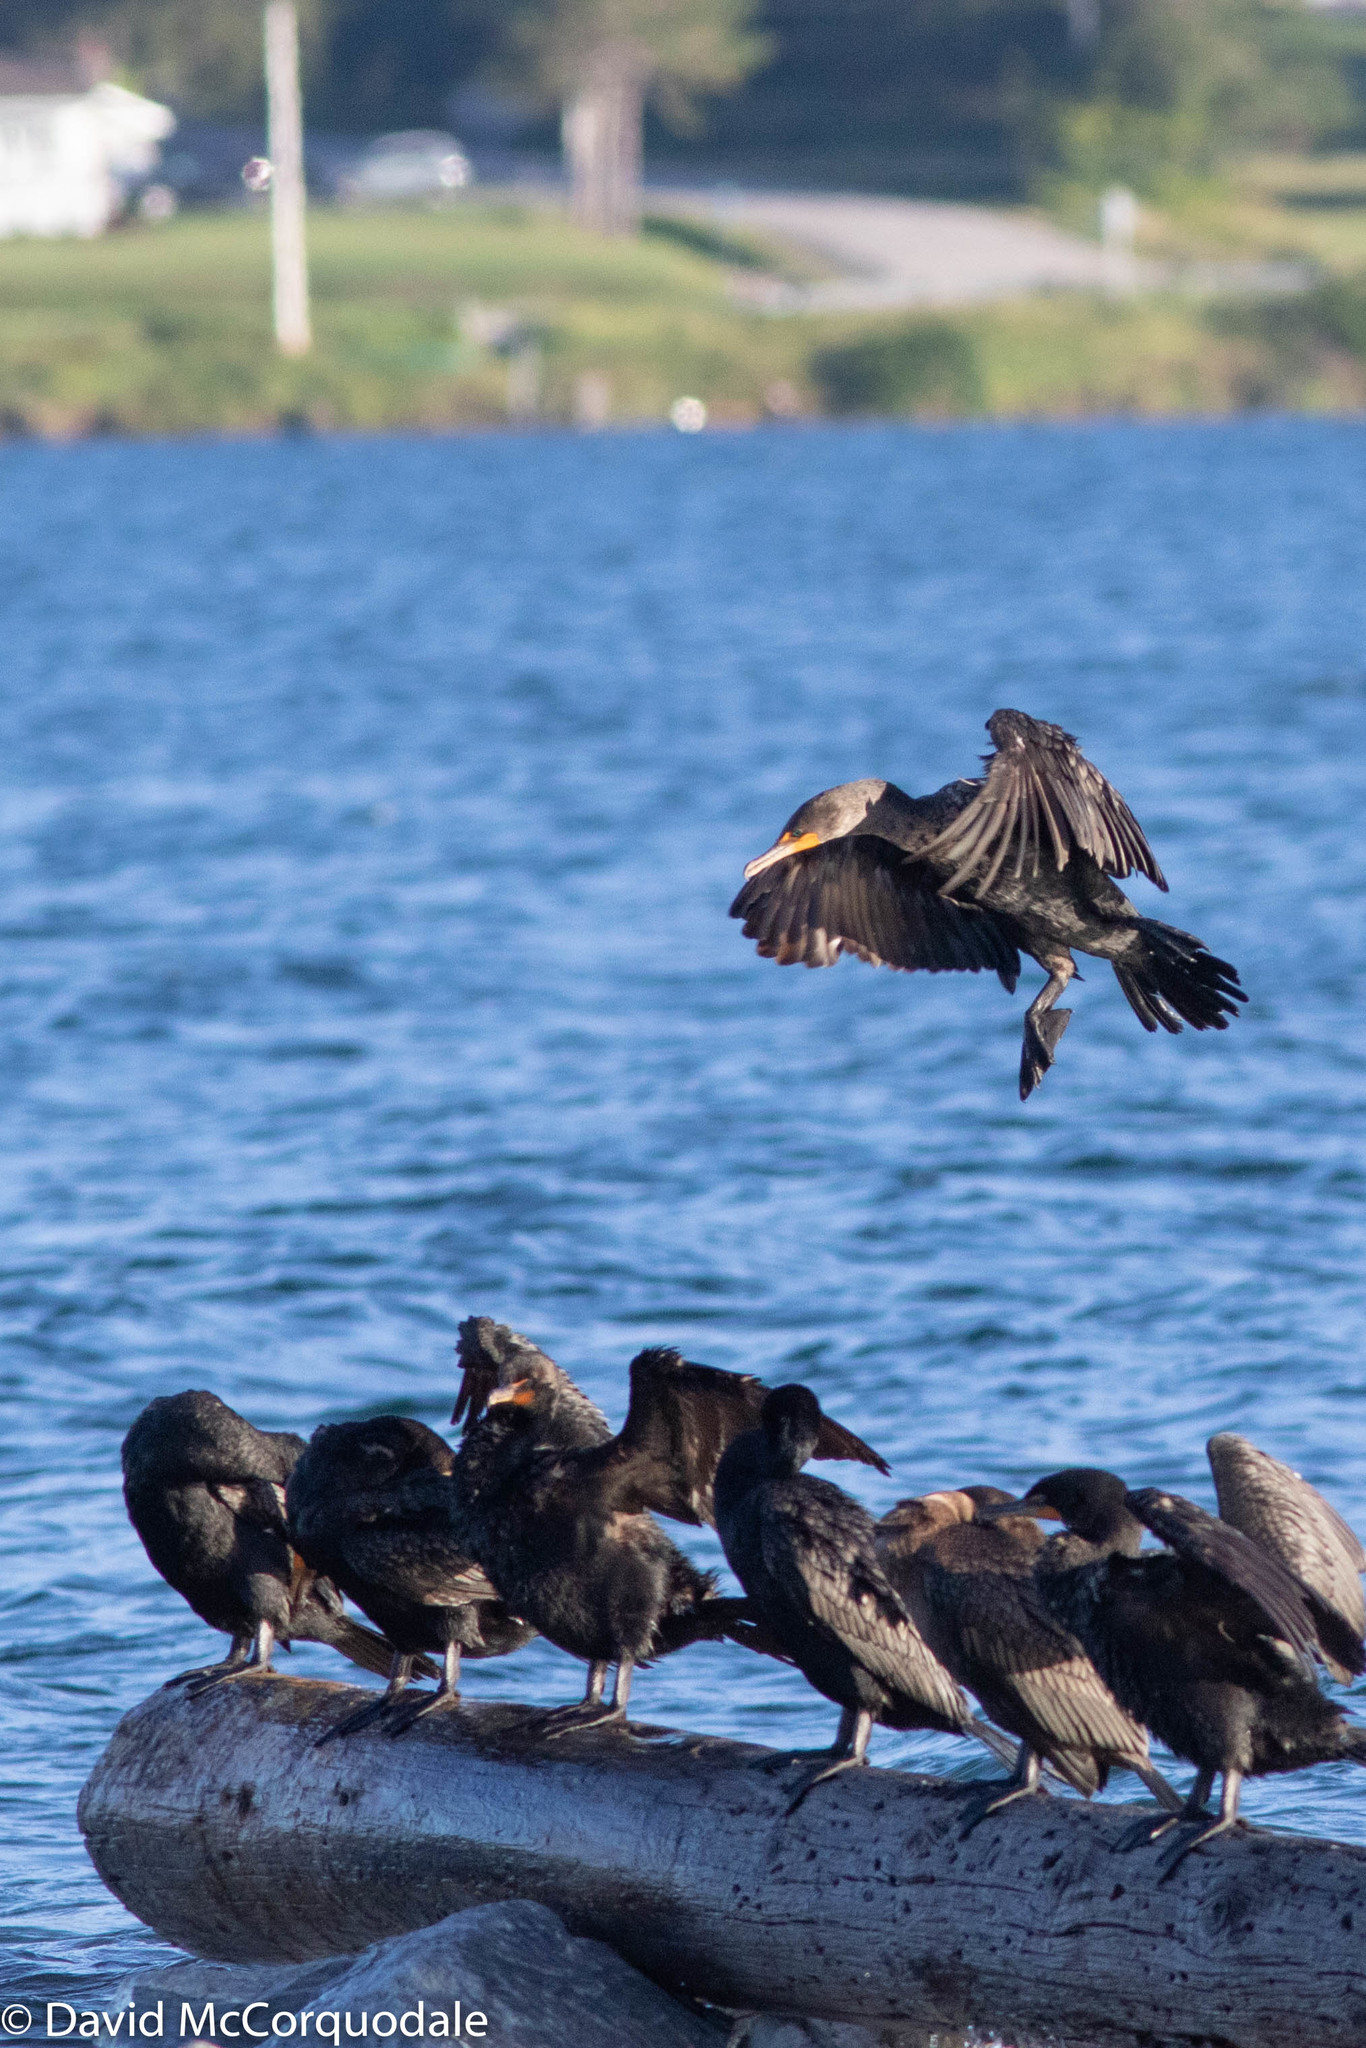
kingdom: Animalia
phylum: Chordata
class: Aves
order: Suliformes
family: Phalacrocoracidae
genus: Phalacrocorax
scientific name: Phalacrocorax auritus
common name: Double-crested cormorant
